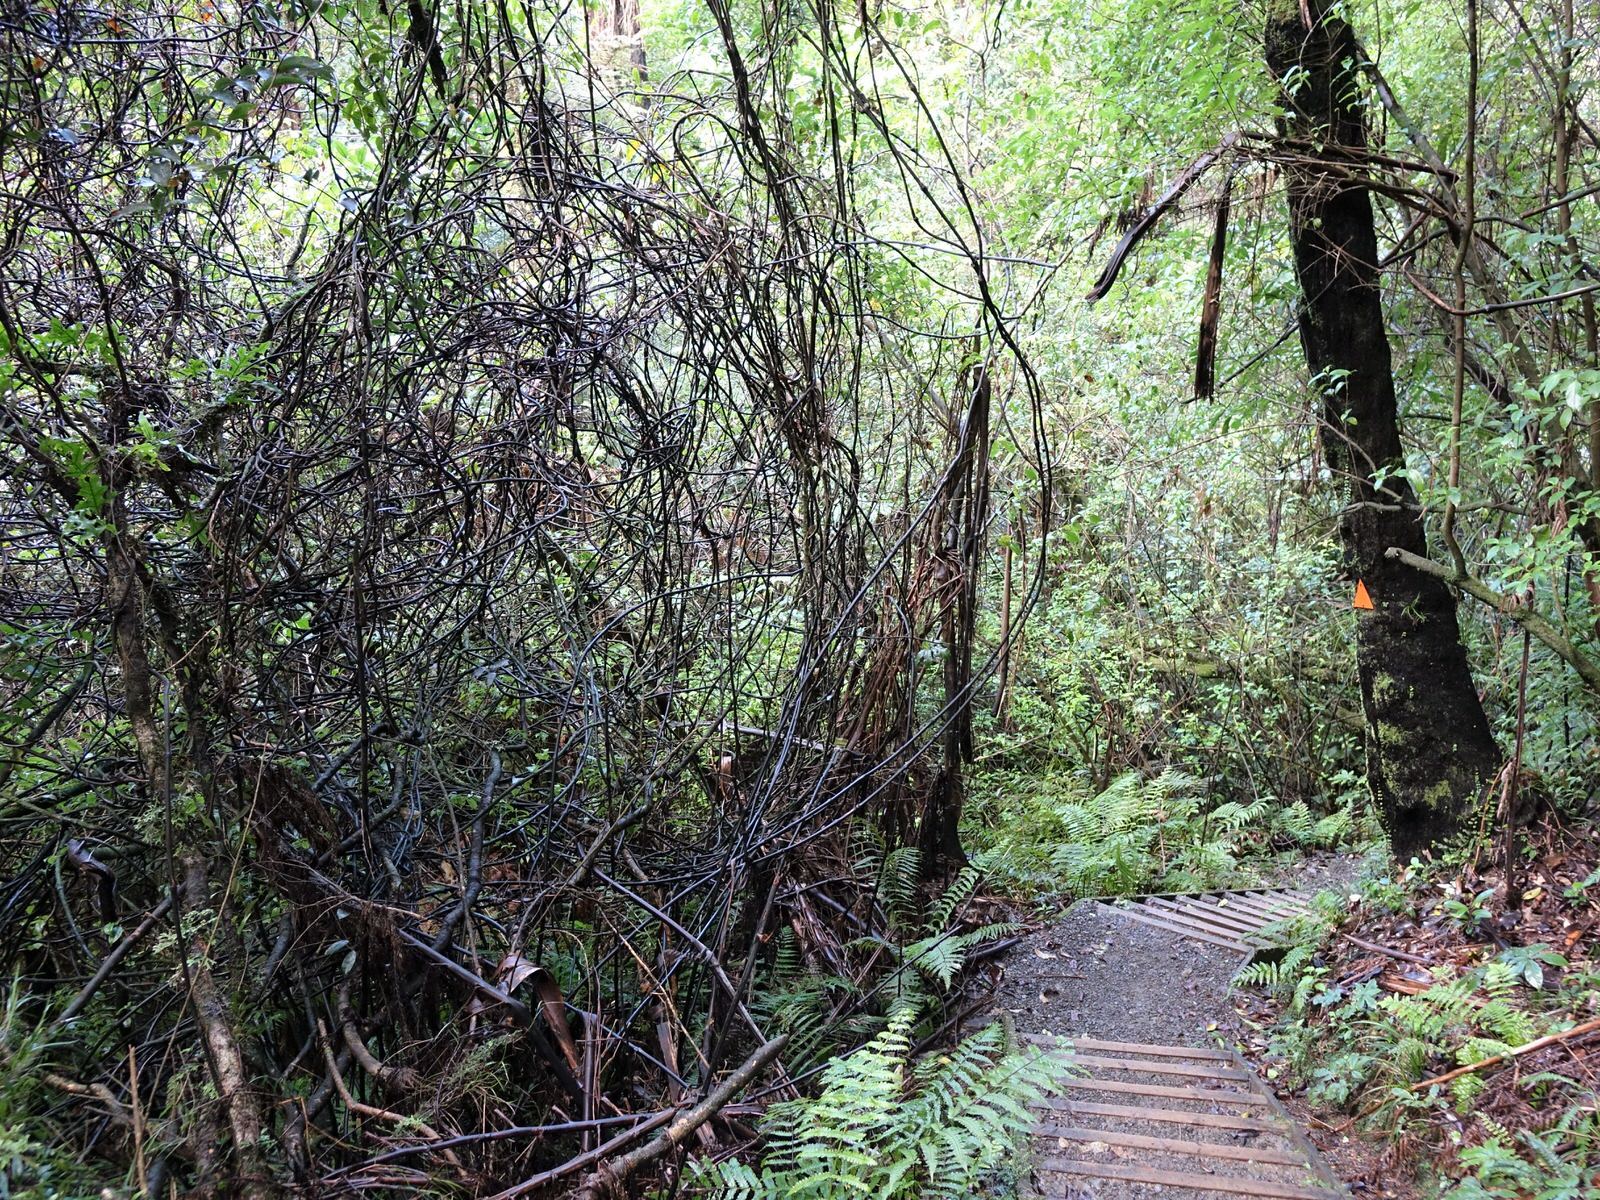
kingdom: Plantae
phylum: Tracheophyta
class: Liliopsida
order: Liliales
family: Ripogonaceae
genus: Ripogonum
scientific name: Ripogonum scandens
